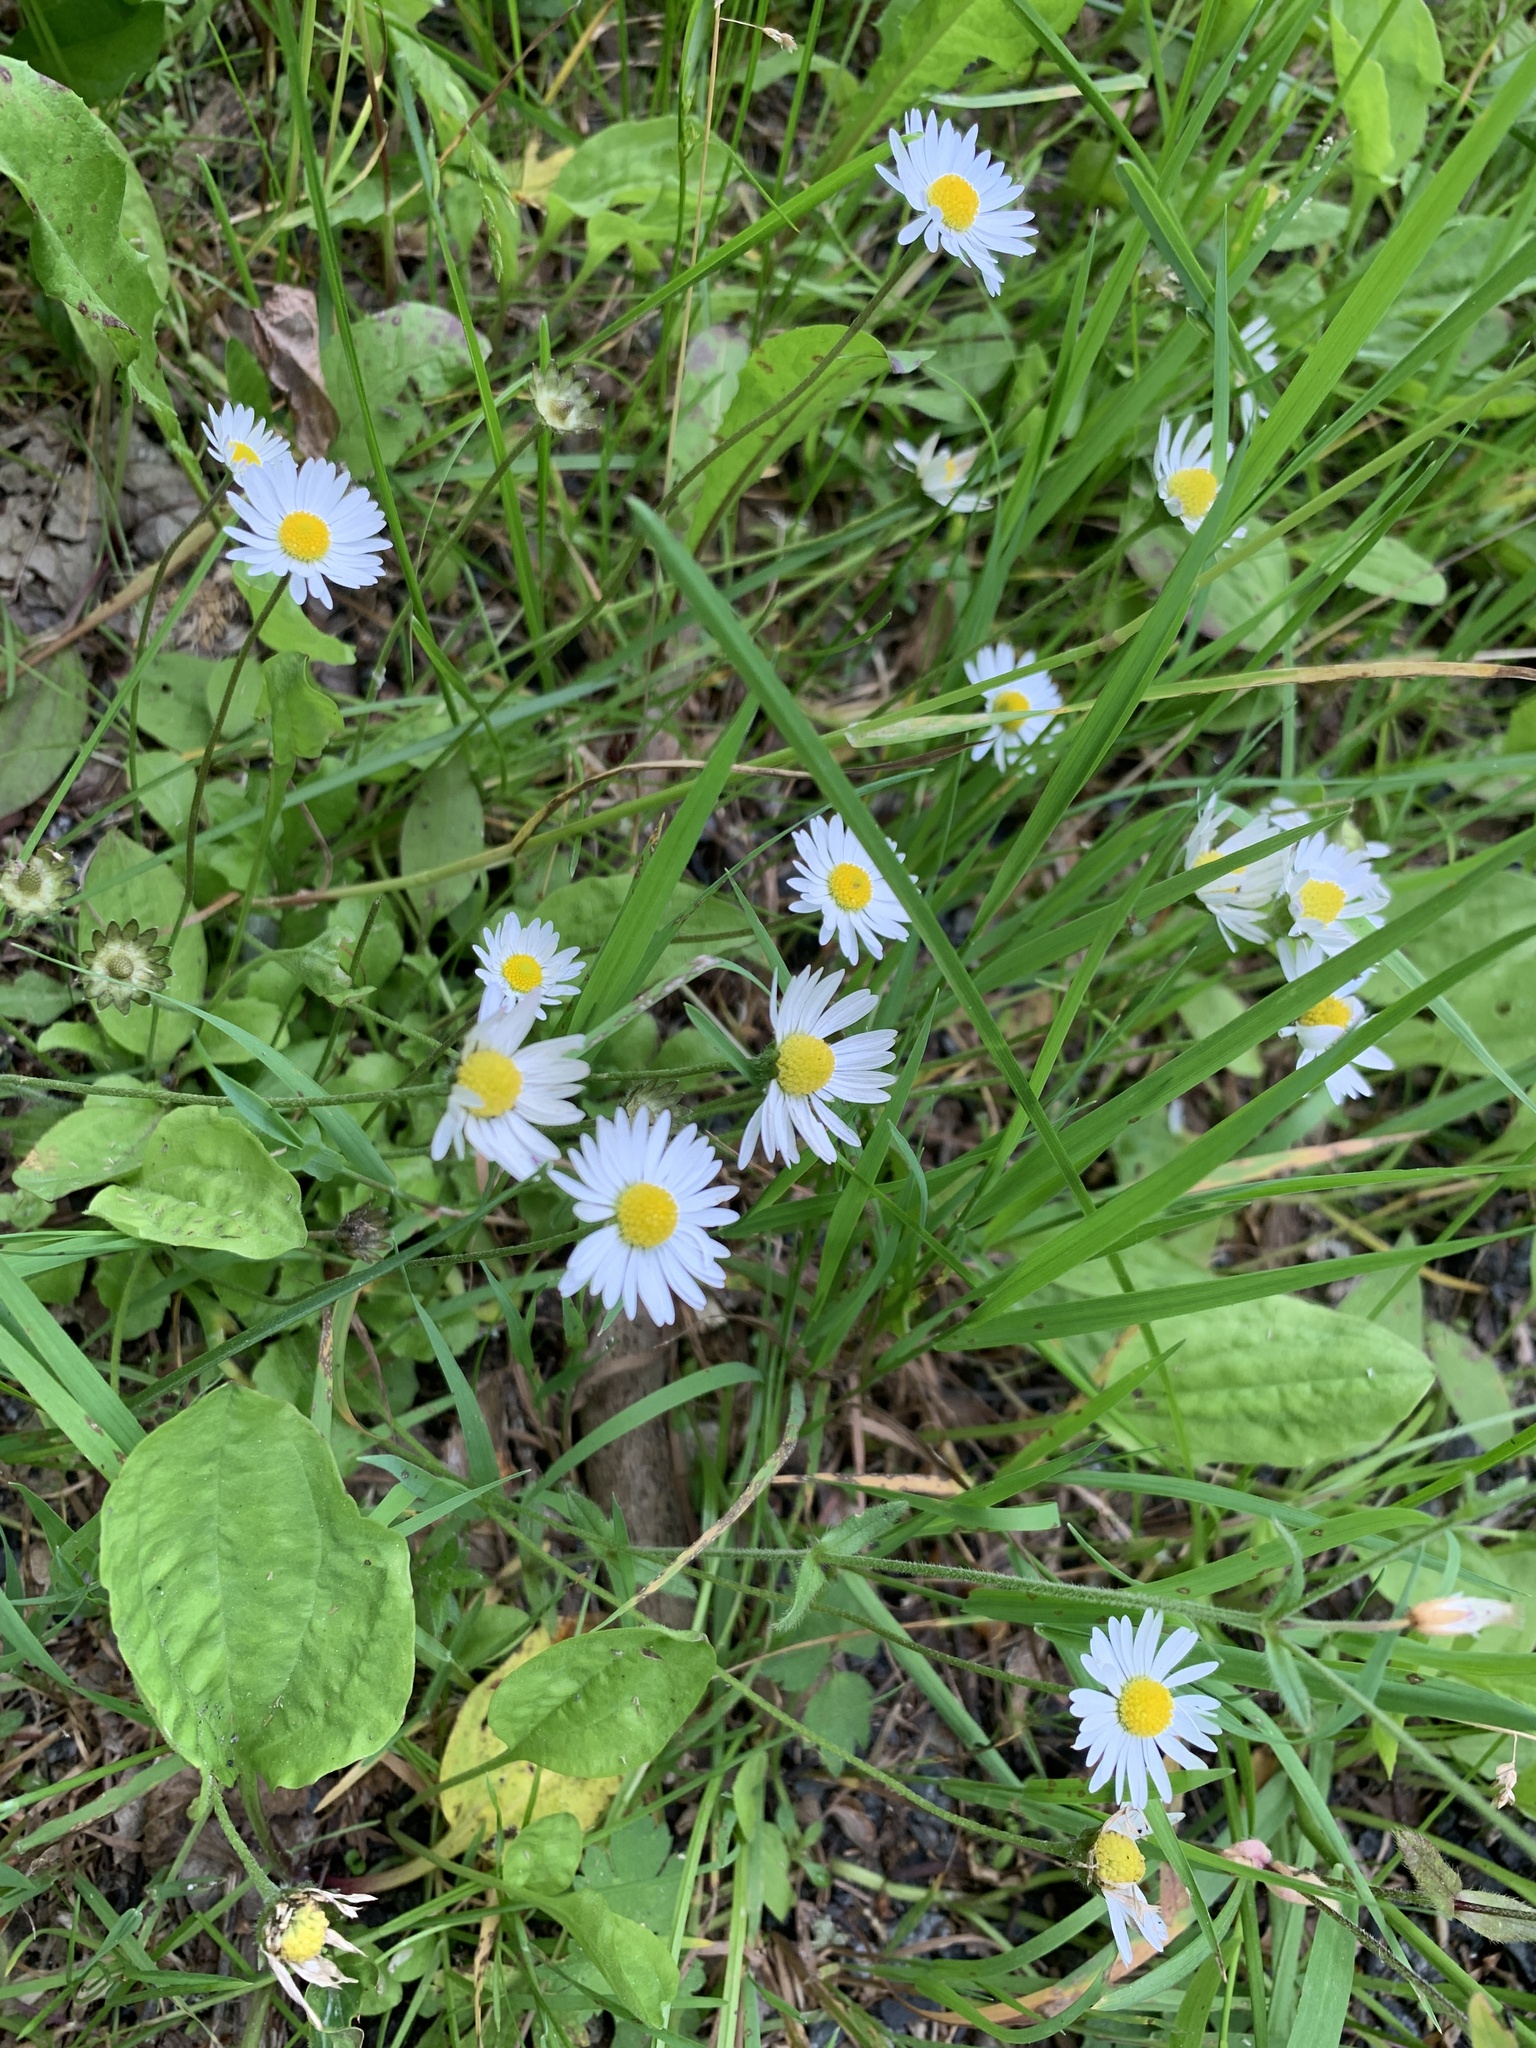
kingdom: Plantae
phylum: Tracheophyta
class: Magnoliopsida
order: Asterales
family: Asteraceae
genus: Bellis
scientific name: Bellis perennis
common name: Lawndaisy
